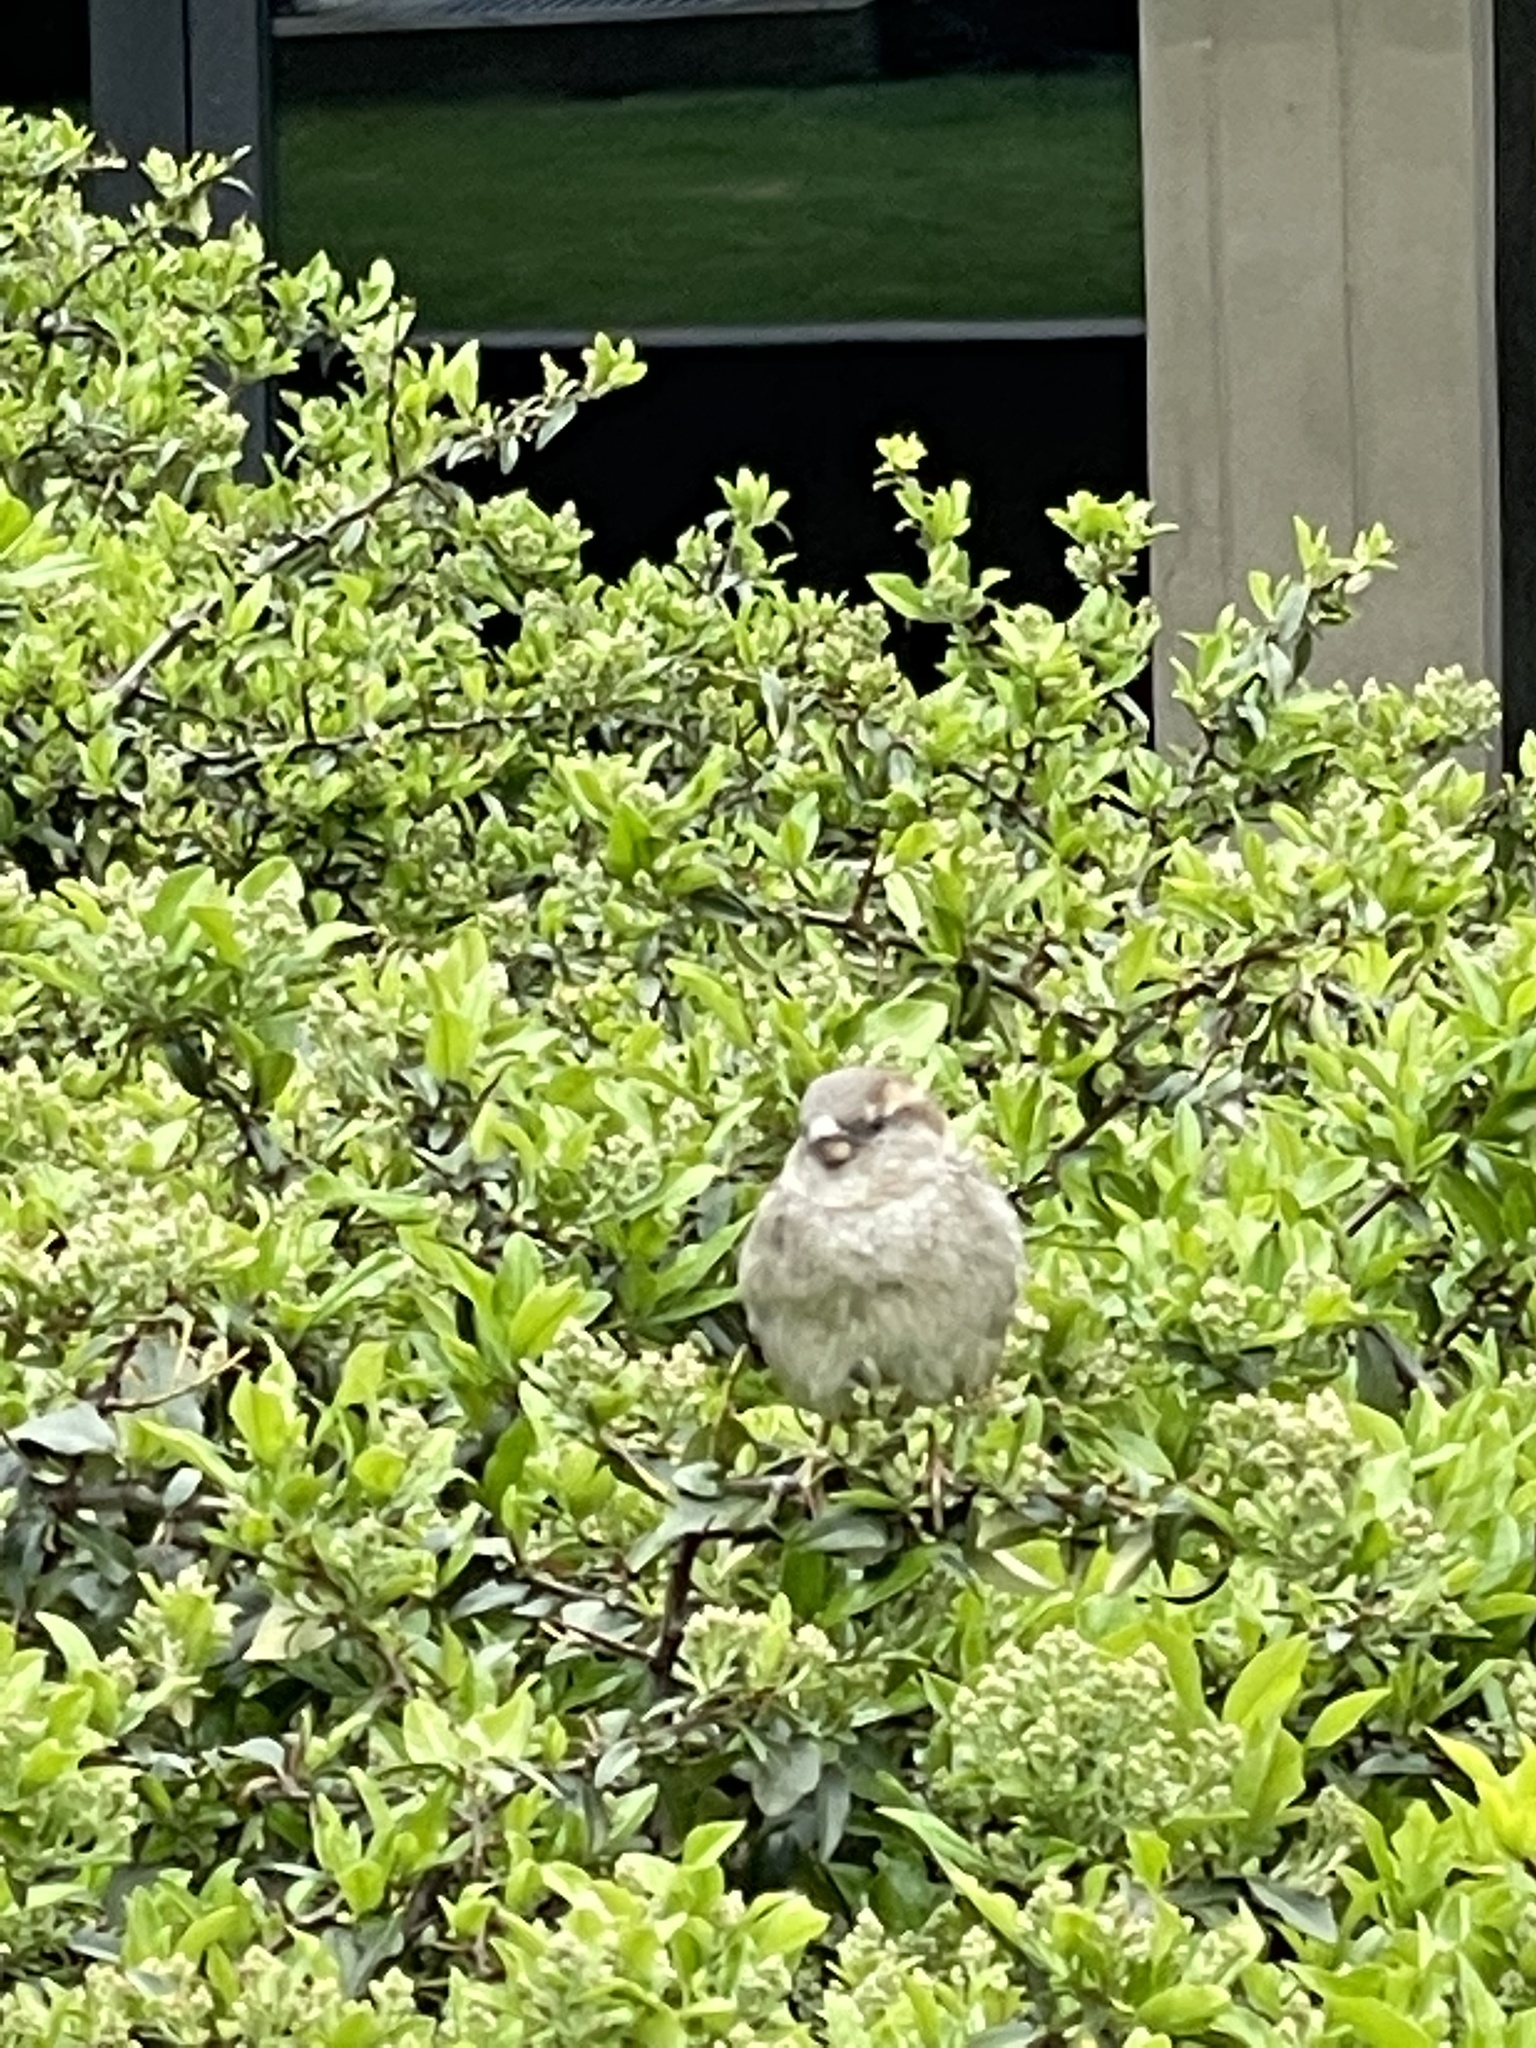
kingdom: Animalia
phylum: Chordata
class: Aves
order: Passeriformes
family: Passeridae
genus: Passer
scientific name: Passer domesticus
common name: House sparrow
